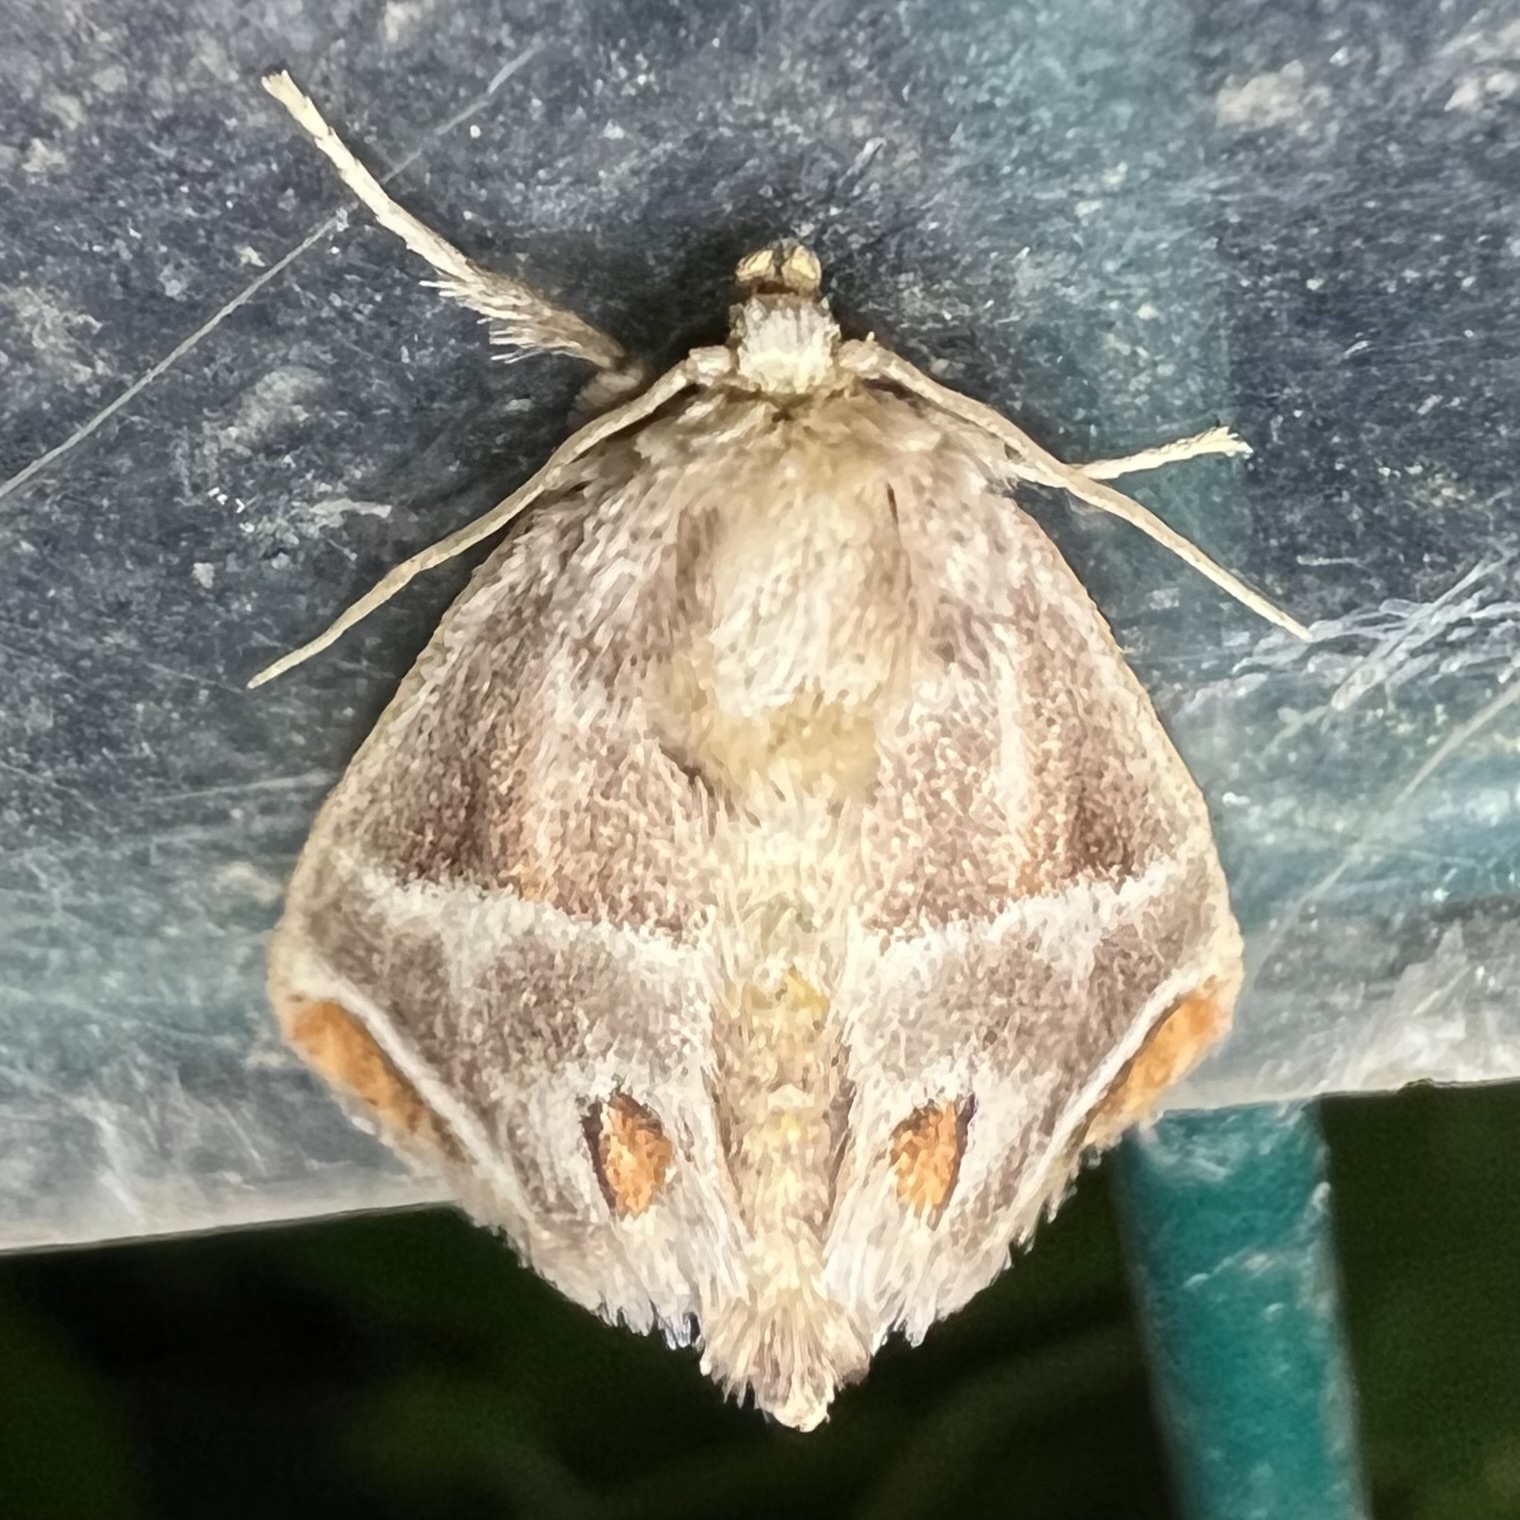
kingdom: Animalia
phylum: Arthropoda
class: Insecta
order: Lepidoptera
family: Limacodidae
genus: Apoda
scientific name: Apoda biguttata
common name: Shagreened slug moth
